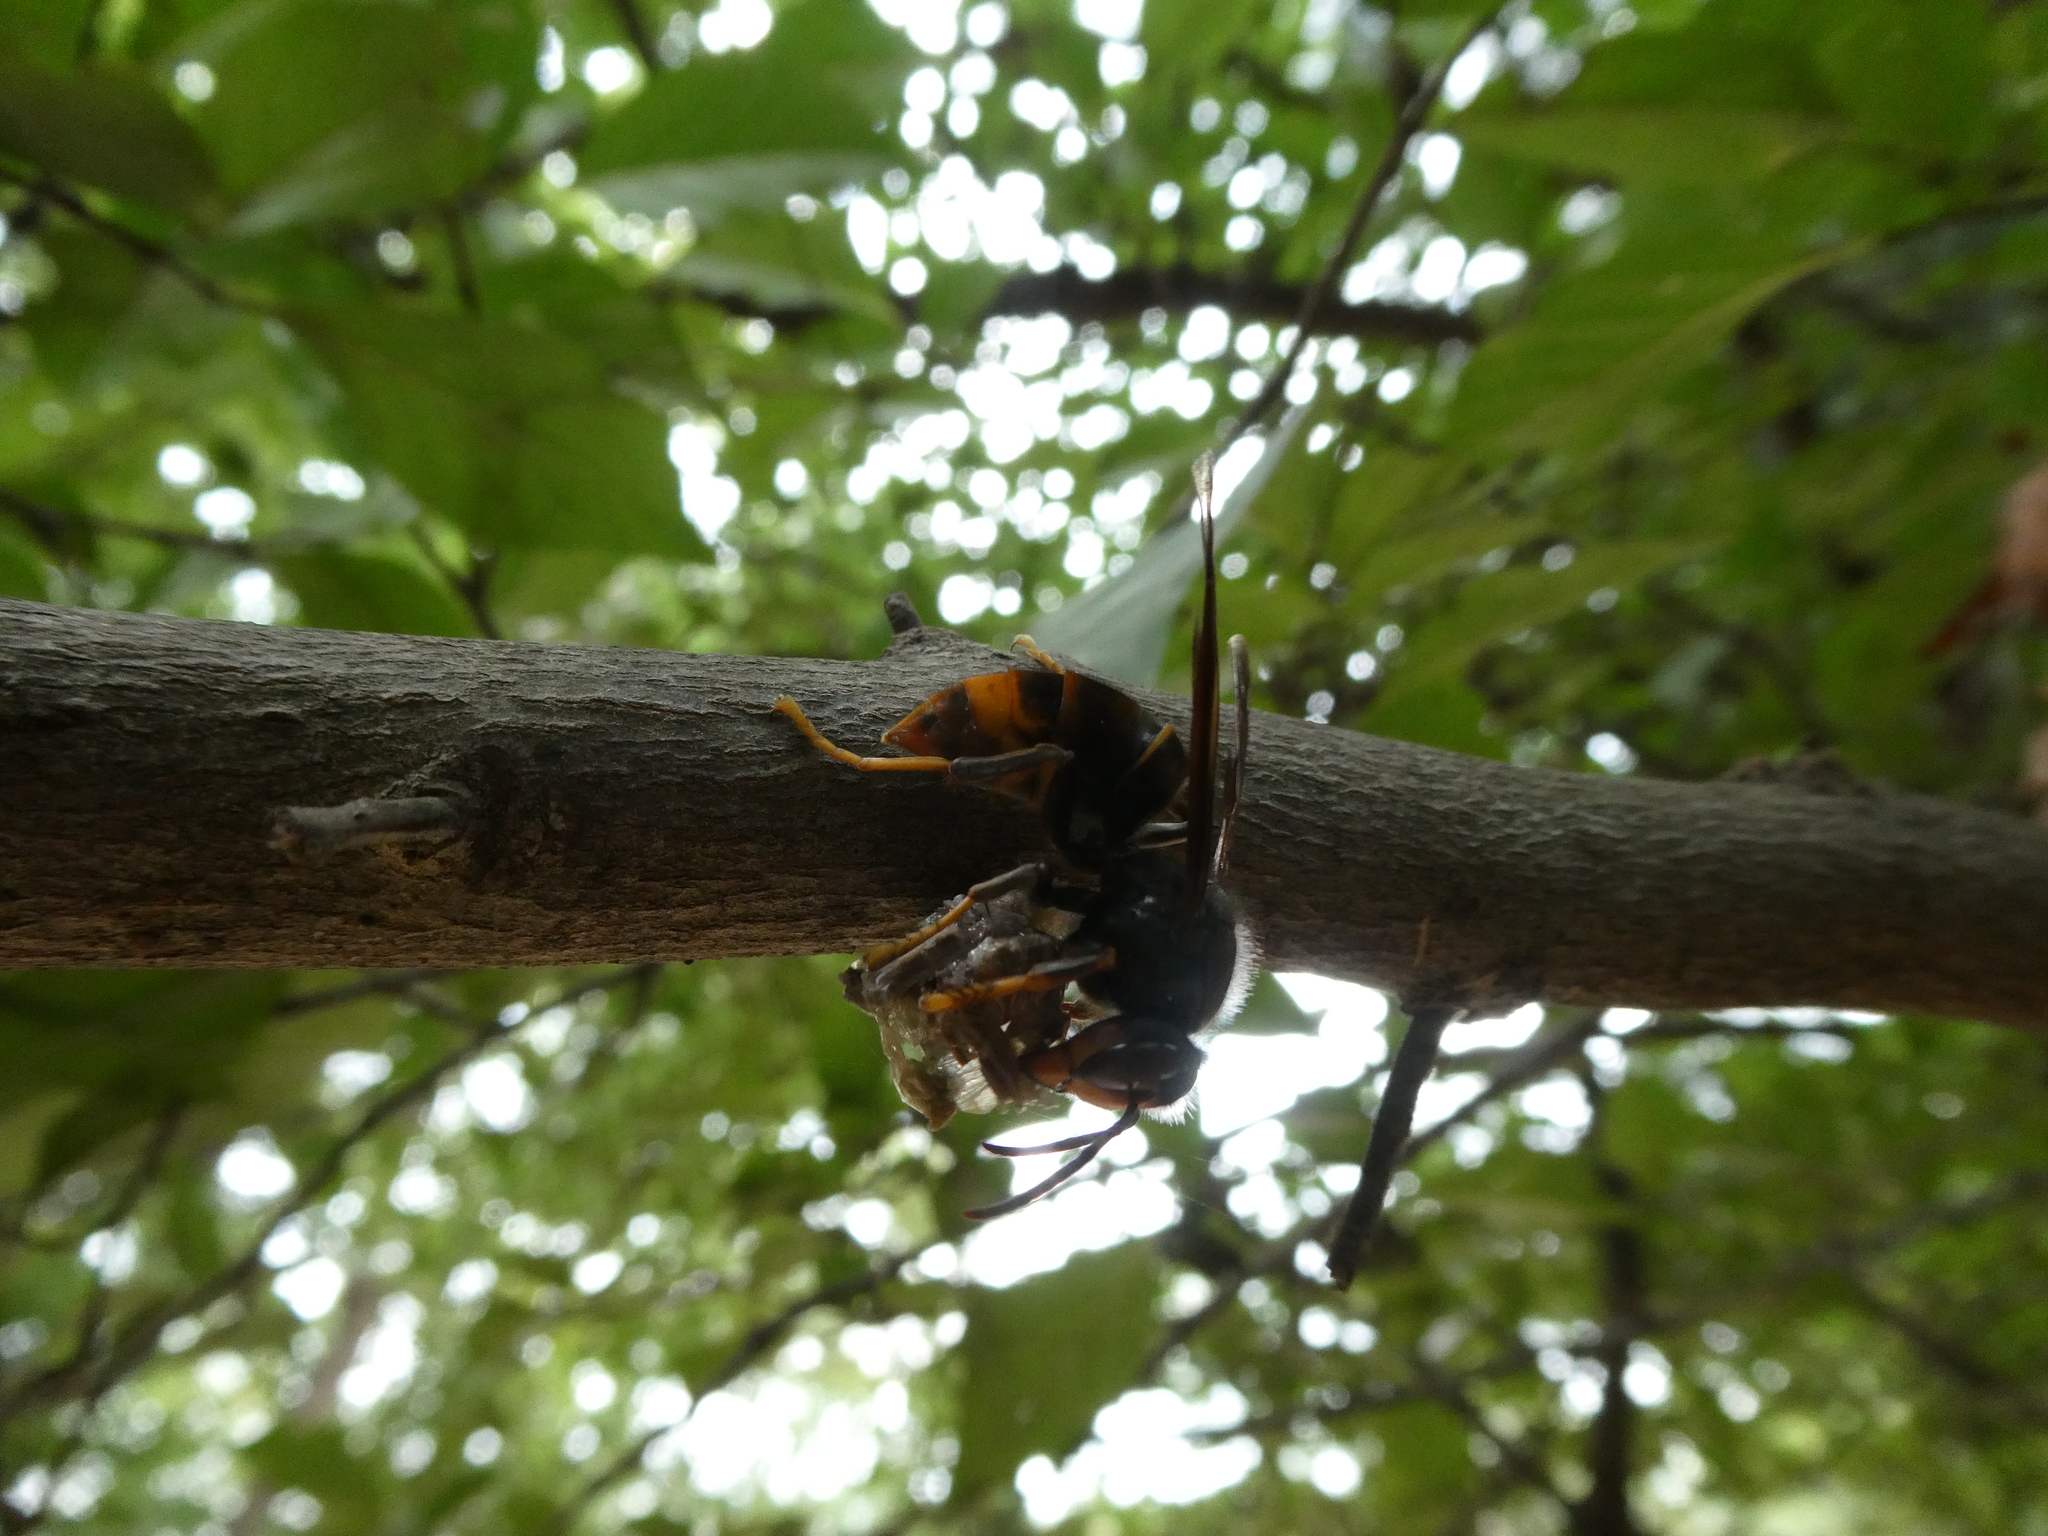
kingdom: Animalia
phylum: Arthropoda
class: Insecta
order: Hymenoptera
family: Vespidae
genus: Vespa
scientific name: Vespa velutina
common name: Asian hornet
